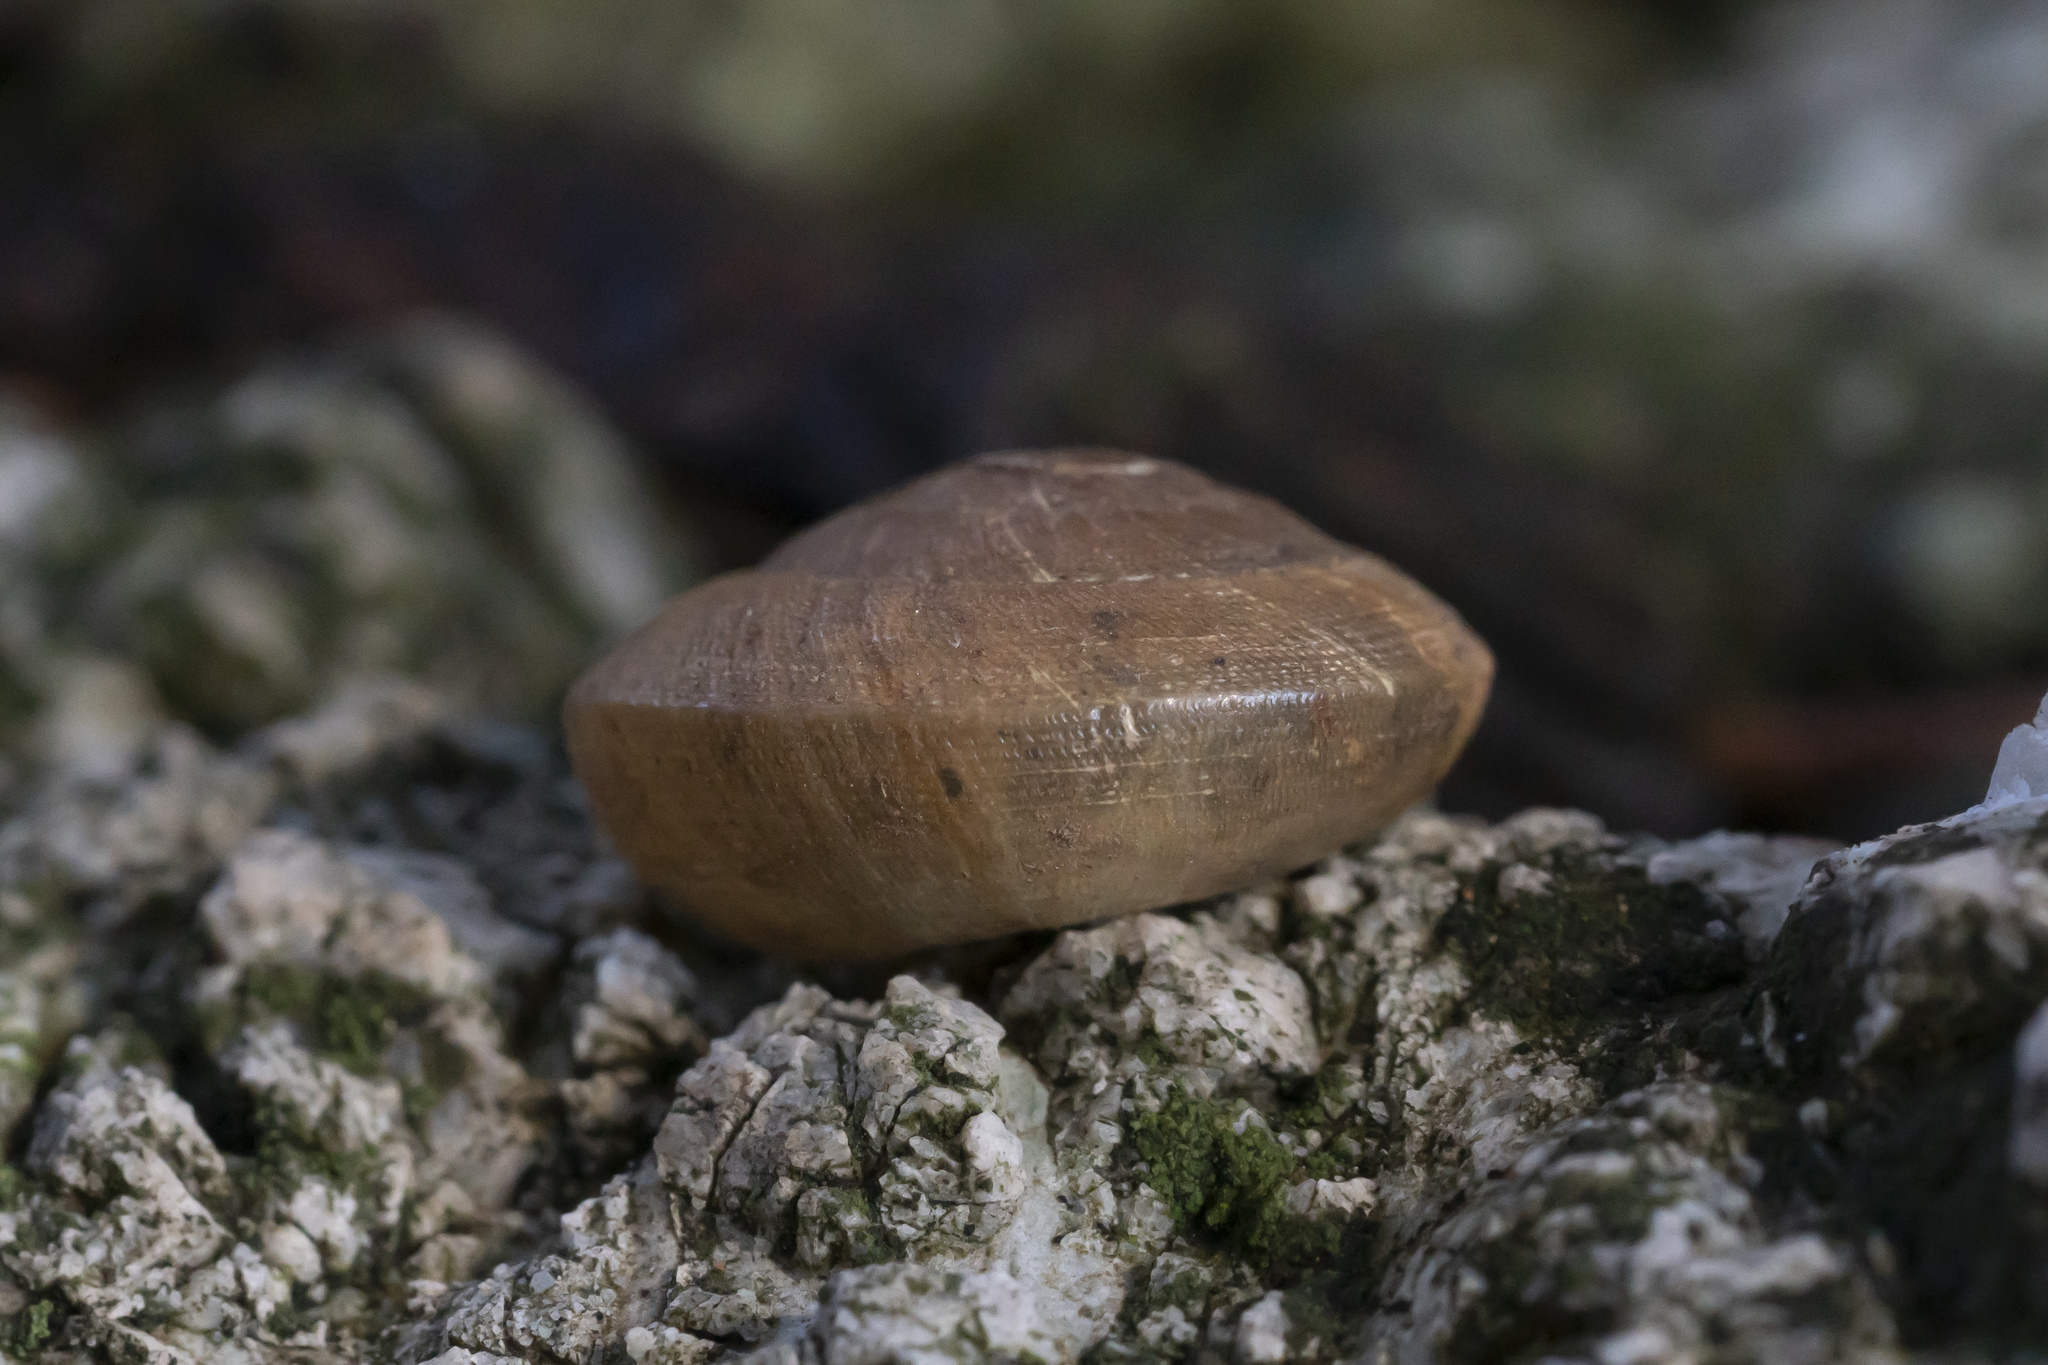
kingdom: Animalia
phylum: Mollusca
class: Gastropoda
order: Stylommatophora
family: Zonitidae
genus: Zonites
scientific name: Zonites festai
